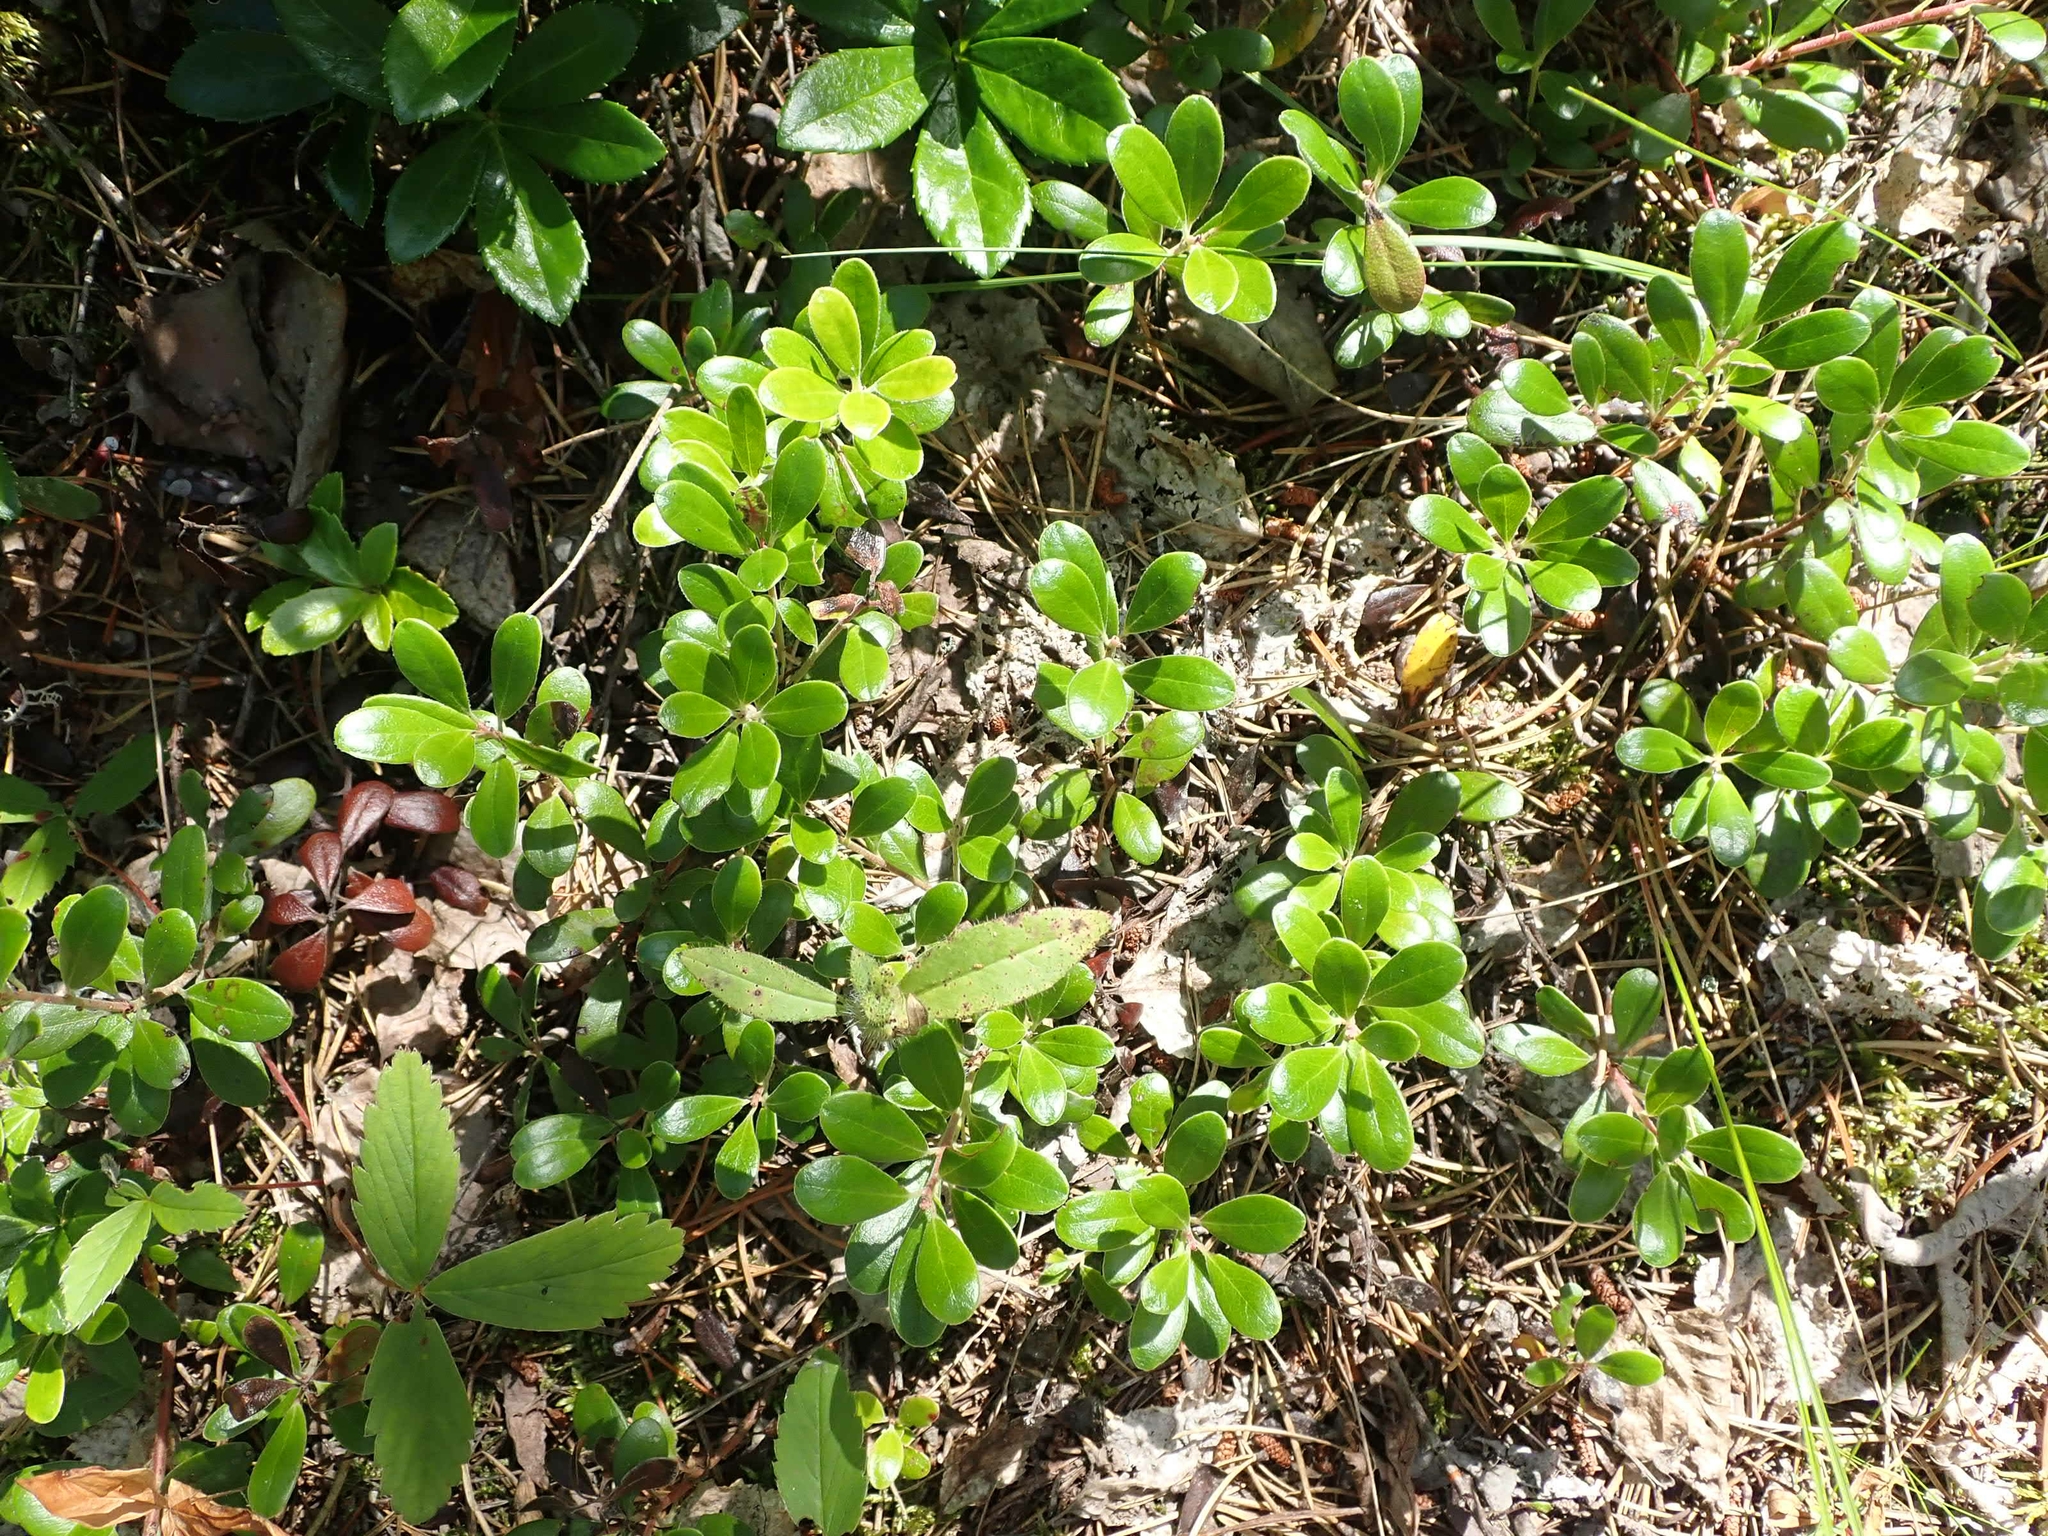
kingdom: Plantae
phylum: Tracheophyta
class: Magnoliopsida
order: Ericales
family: Ericaceae
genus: Arctostaphylos
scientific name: Arctostaphylos uva-ursi
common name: Bearberry
